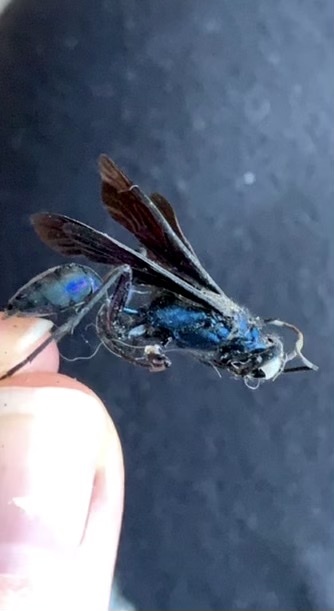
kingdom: Animalia
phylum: Arthropoda
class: Insecta
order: Hymenoptera
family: Sphecidae
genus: Chalybion
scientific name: Chalybion californicum
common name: Mud dauber
